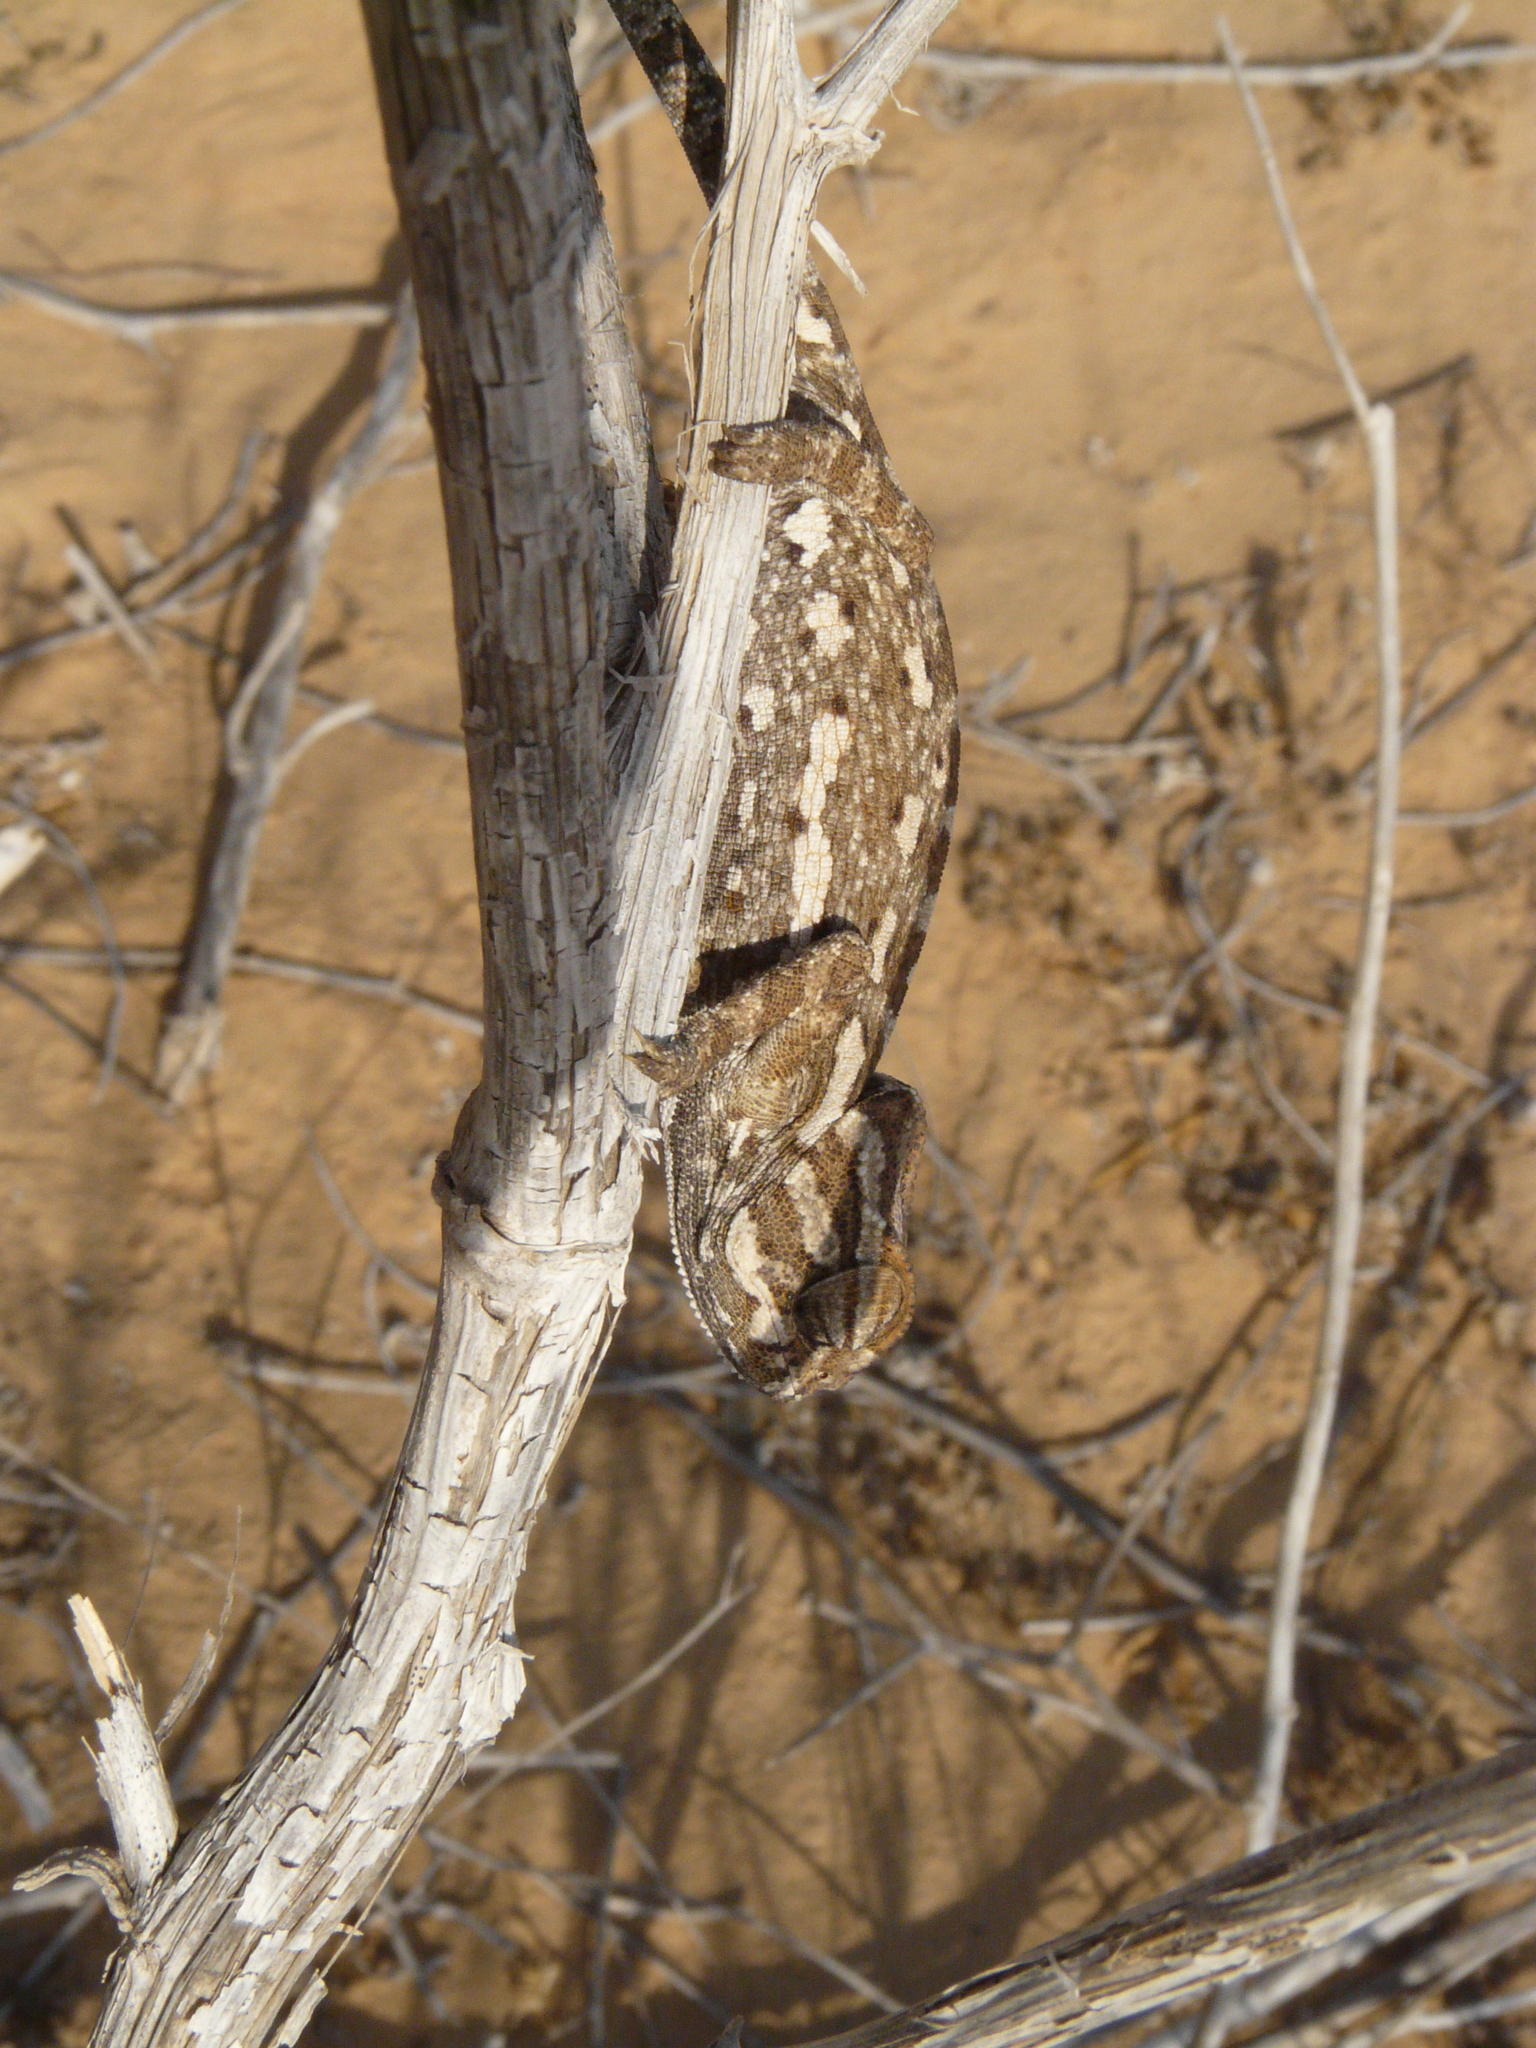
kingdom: Animalia
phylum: Chordata
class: Squamata
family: Chamaeleonidae
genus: Chamaeleo
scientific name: Chamaeleo chamaeleon
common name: Mediterranean chameleon
